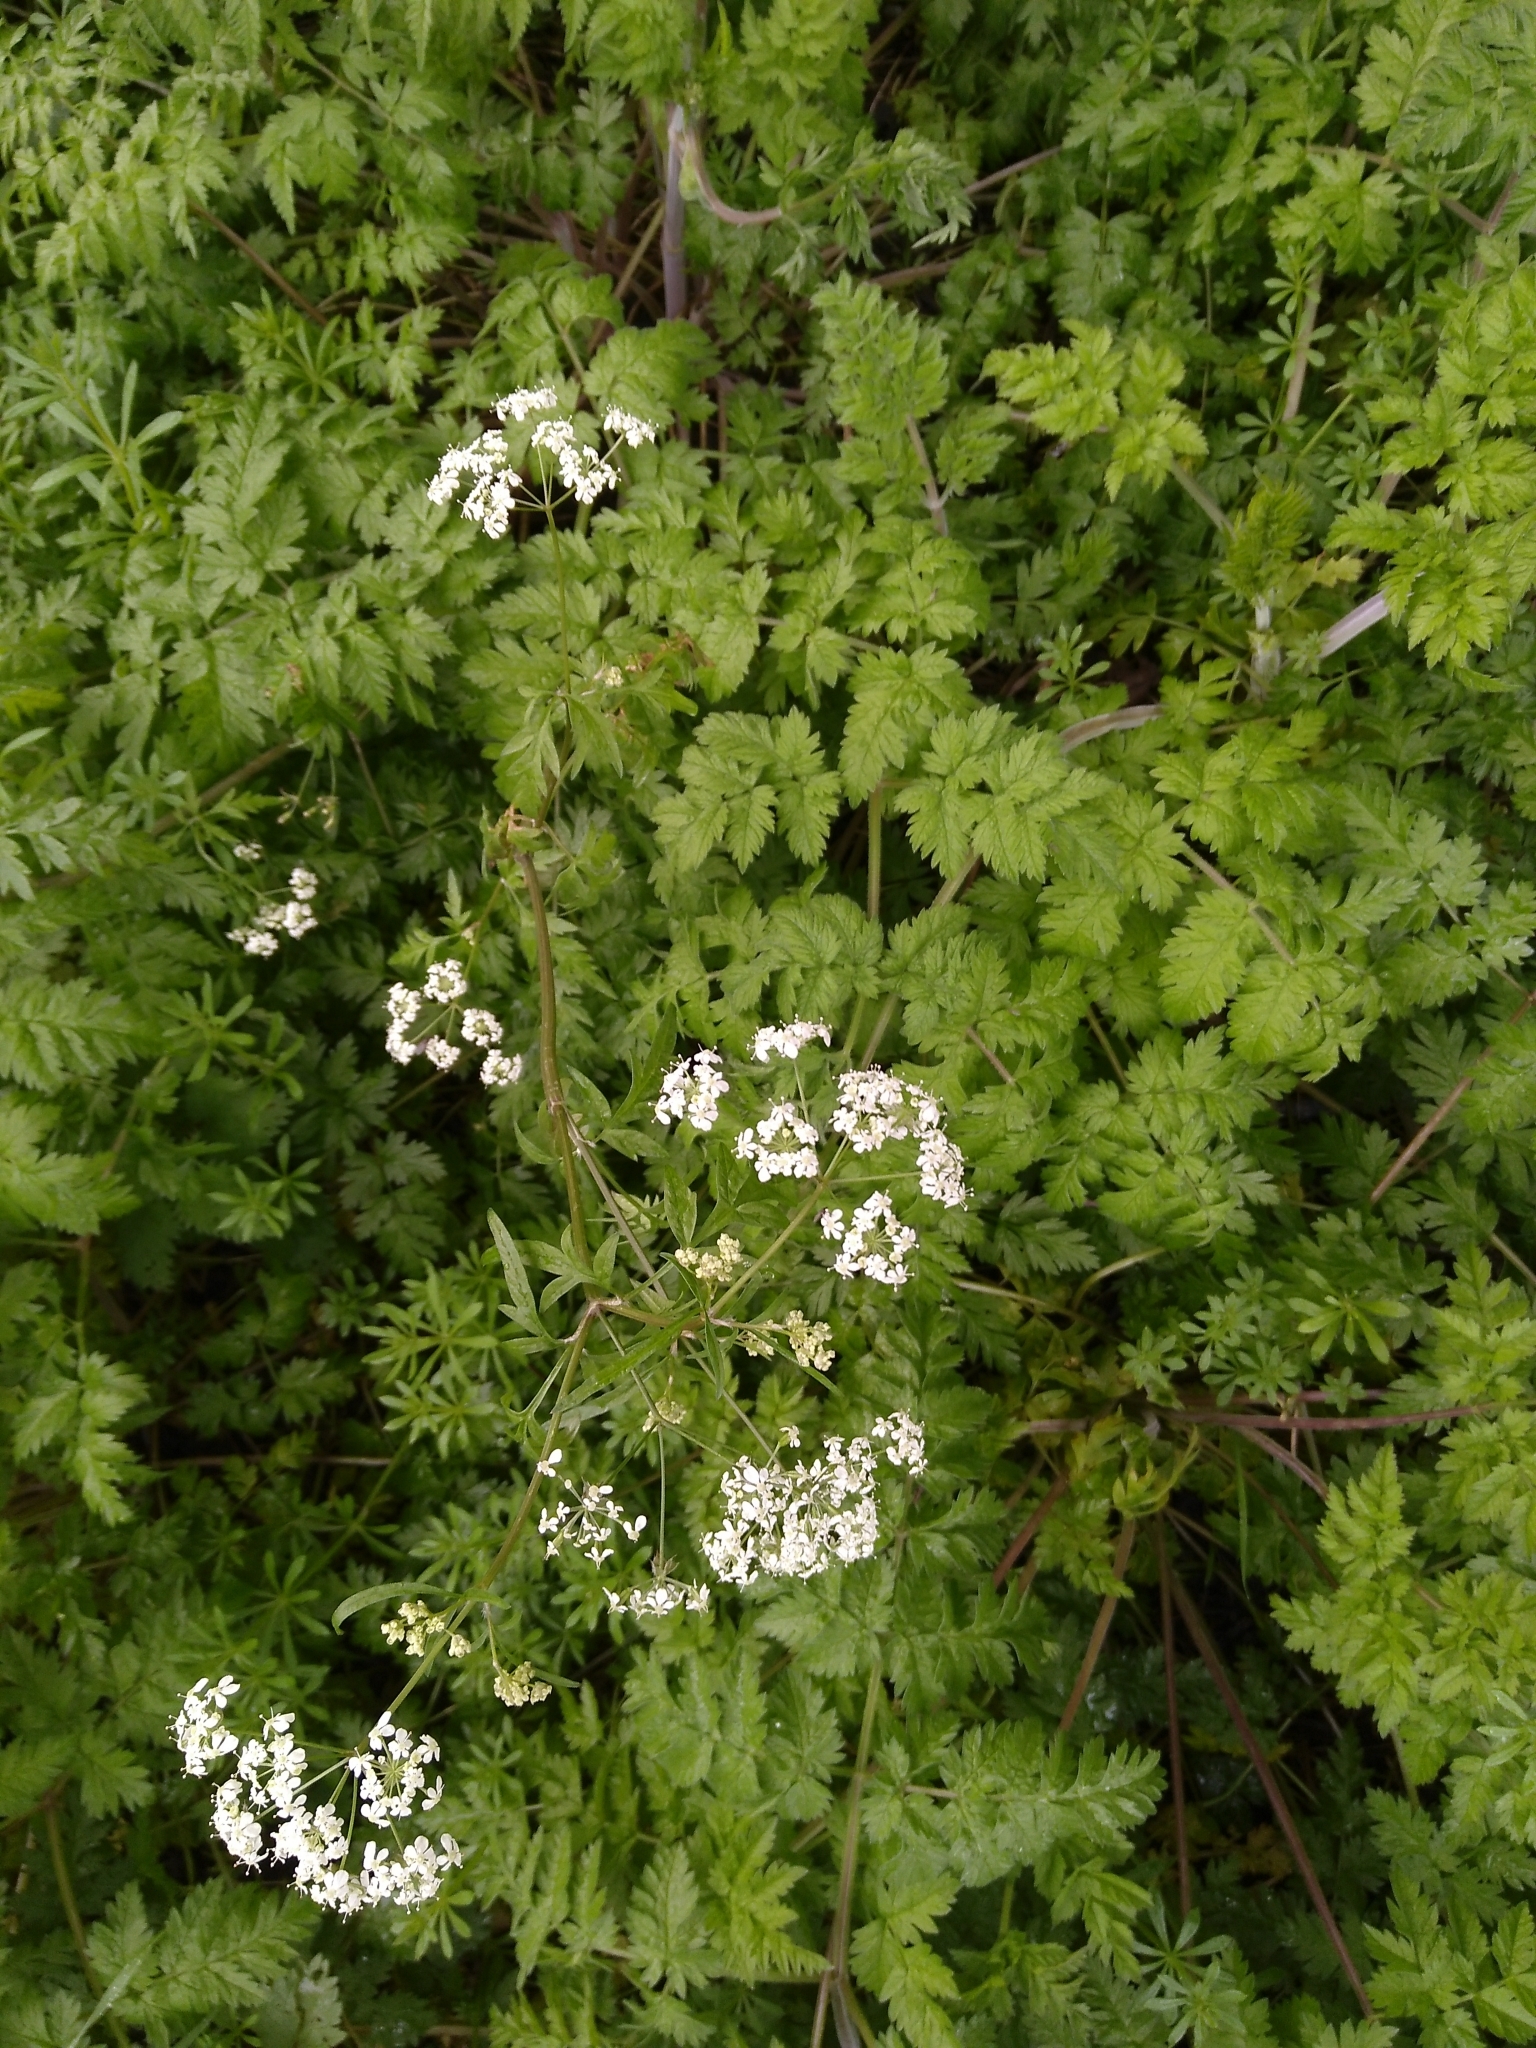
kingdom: Plantae
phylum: Tracheophyta
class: Magnoliopsida
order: Apiales
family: Apiaceae
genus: Anthriscus
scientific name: Anthriscus sylvestris
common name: Cow parsley
